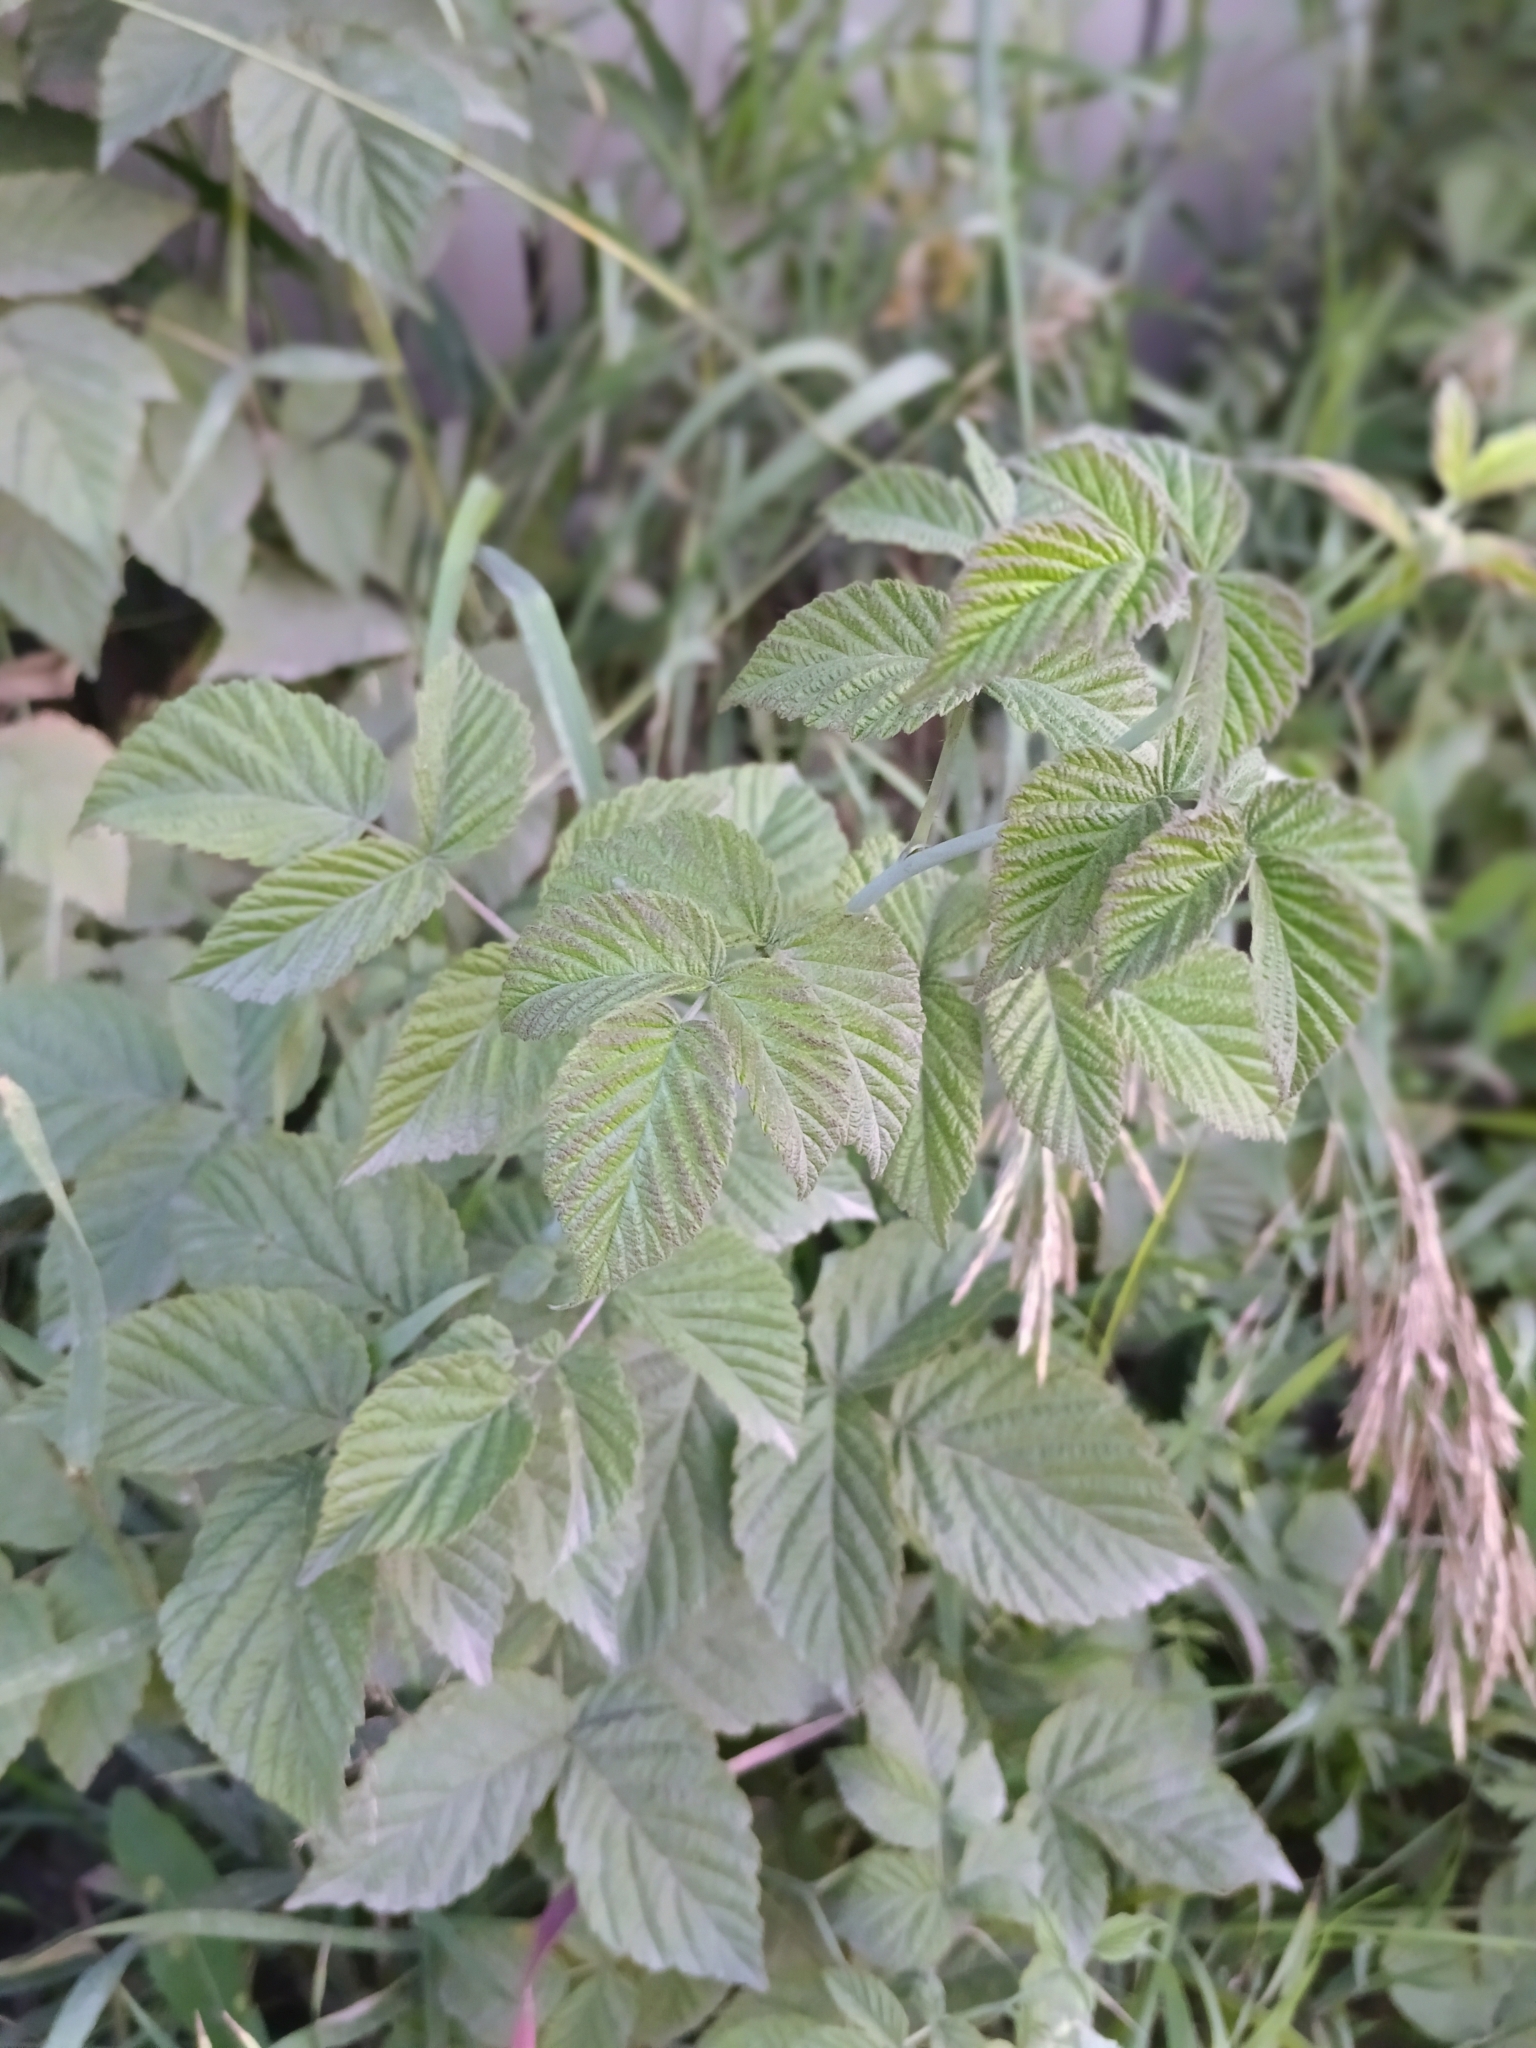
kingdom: Plantae
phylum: Tracheophyta
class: Magnoliopsida
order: Rosales
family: Rosaceae
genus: Rubus
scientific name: Rubus idaeus
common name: Raspberry
